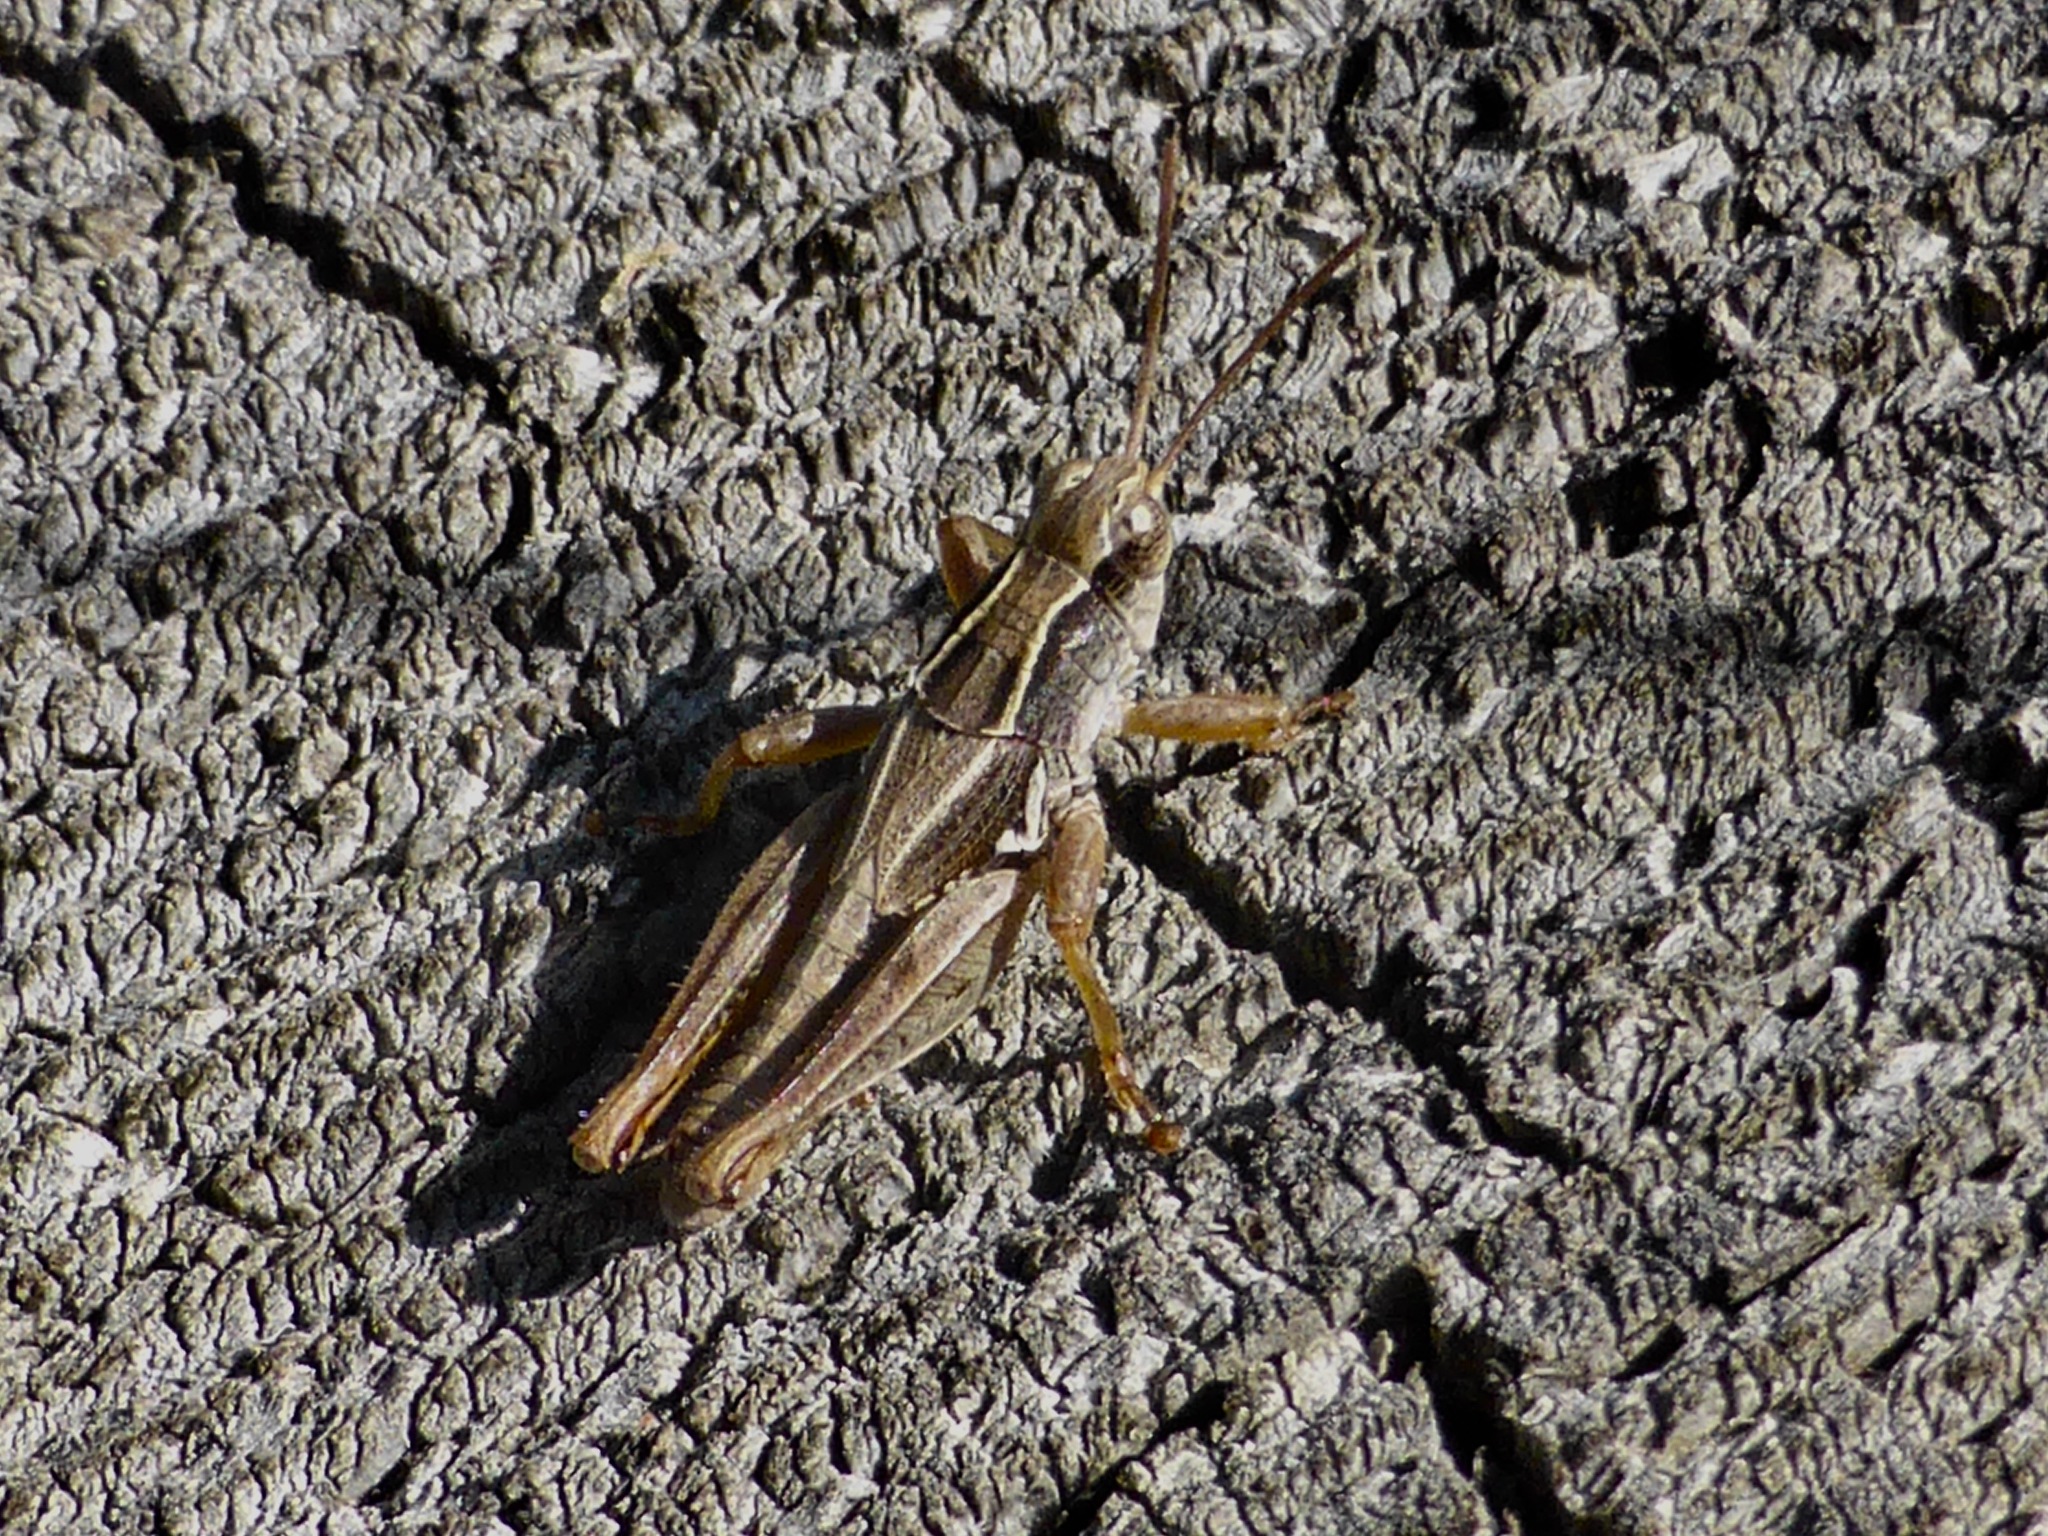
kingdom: Animalia
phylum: Arthropoda
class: Insecta
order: Orthoptera
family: Acrididae
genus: Phaulacridium
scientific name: Phaulacridium marginale
